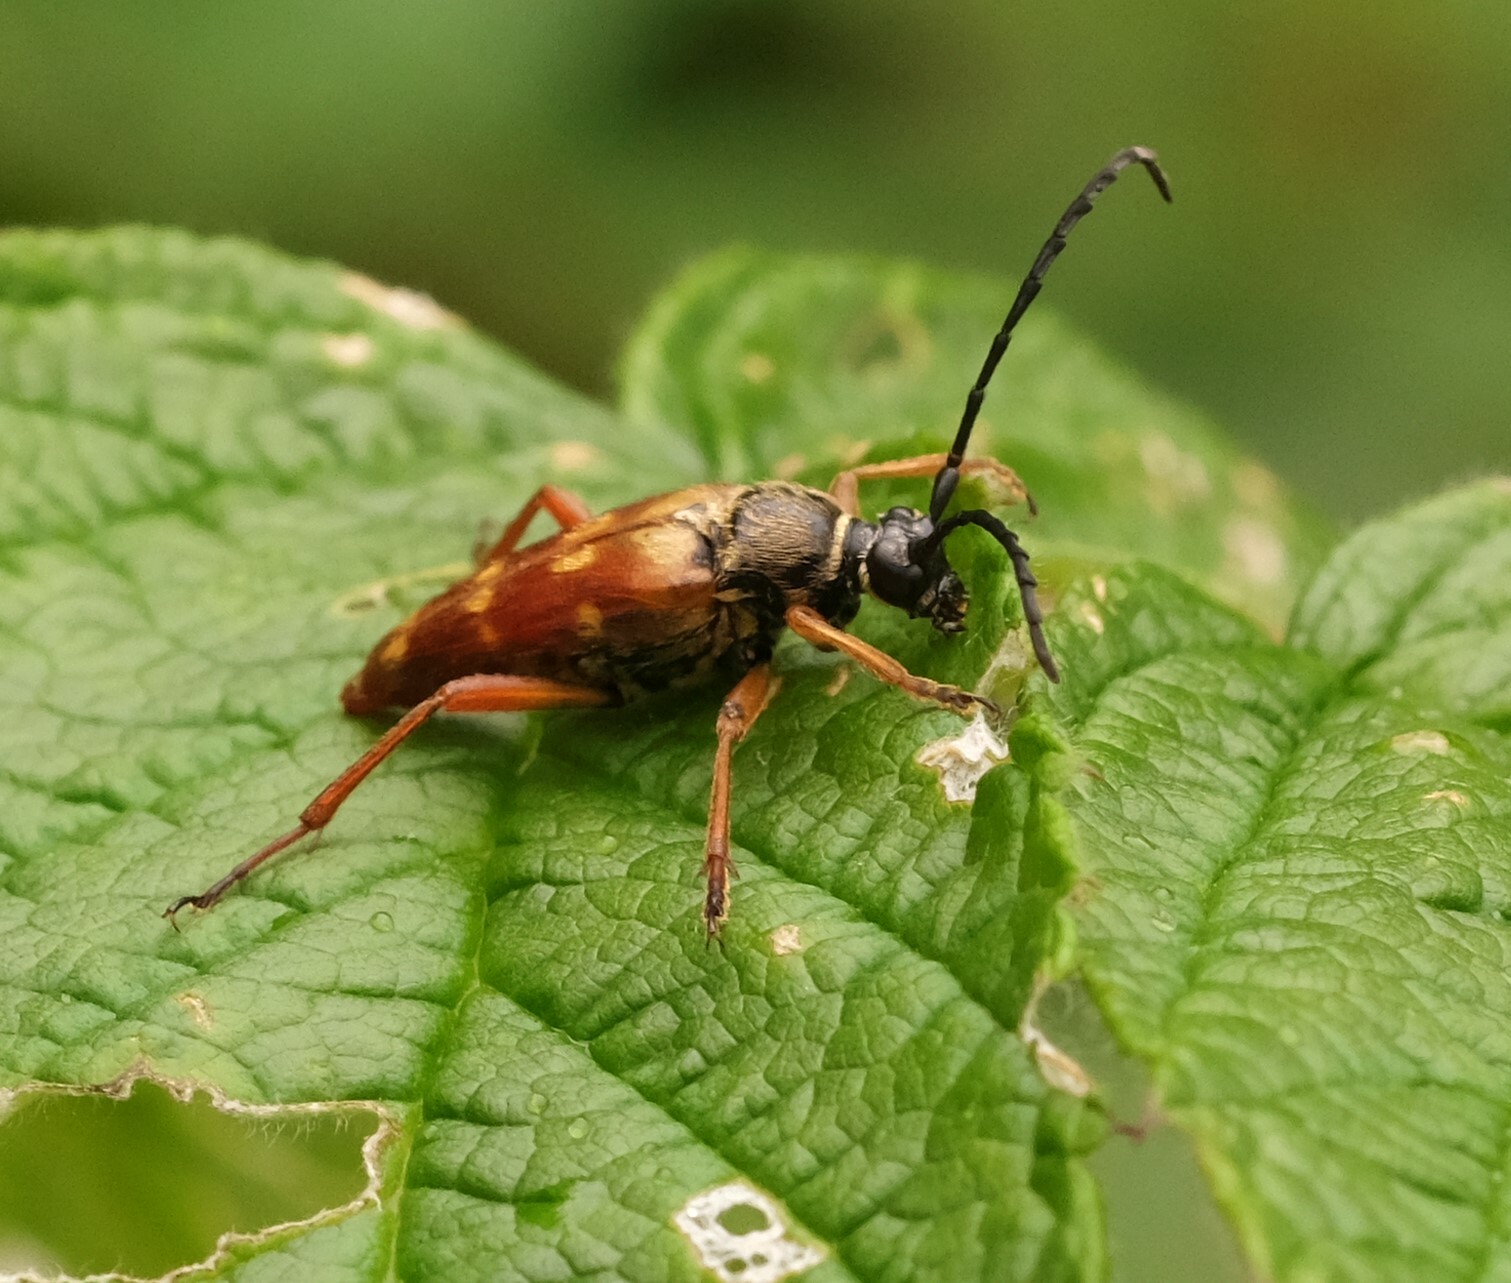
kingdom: Animalia
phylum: Arthropoda
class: Insecta
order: Coleoptera
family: Cerambycidae
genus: Typocerus
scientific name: Typocerus velutinus
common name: Banded longhorn beetle
